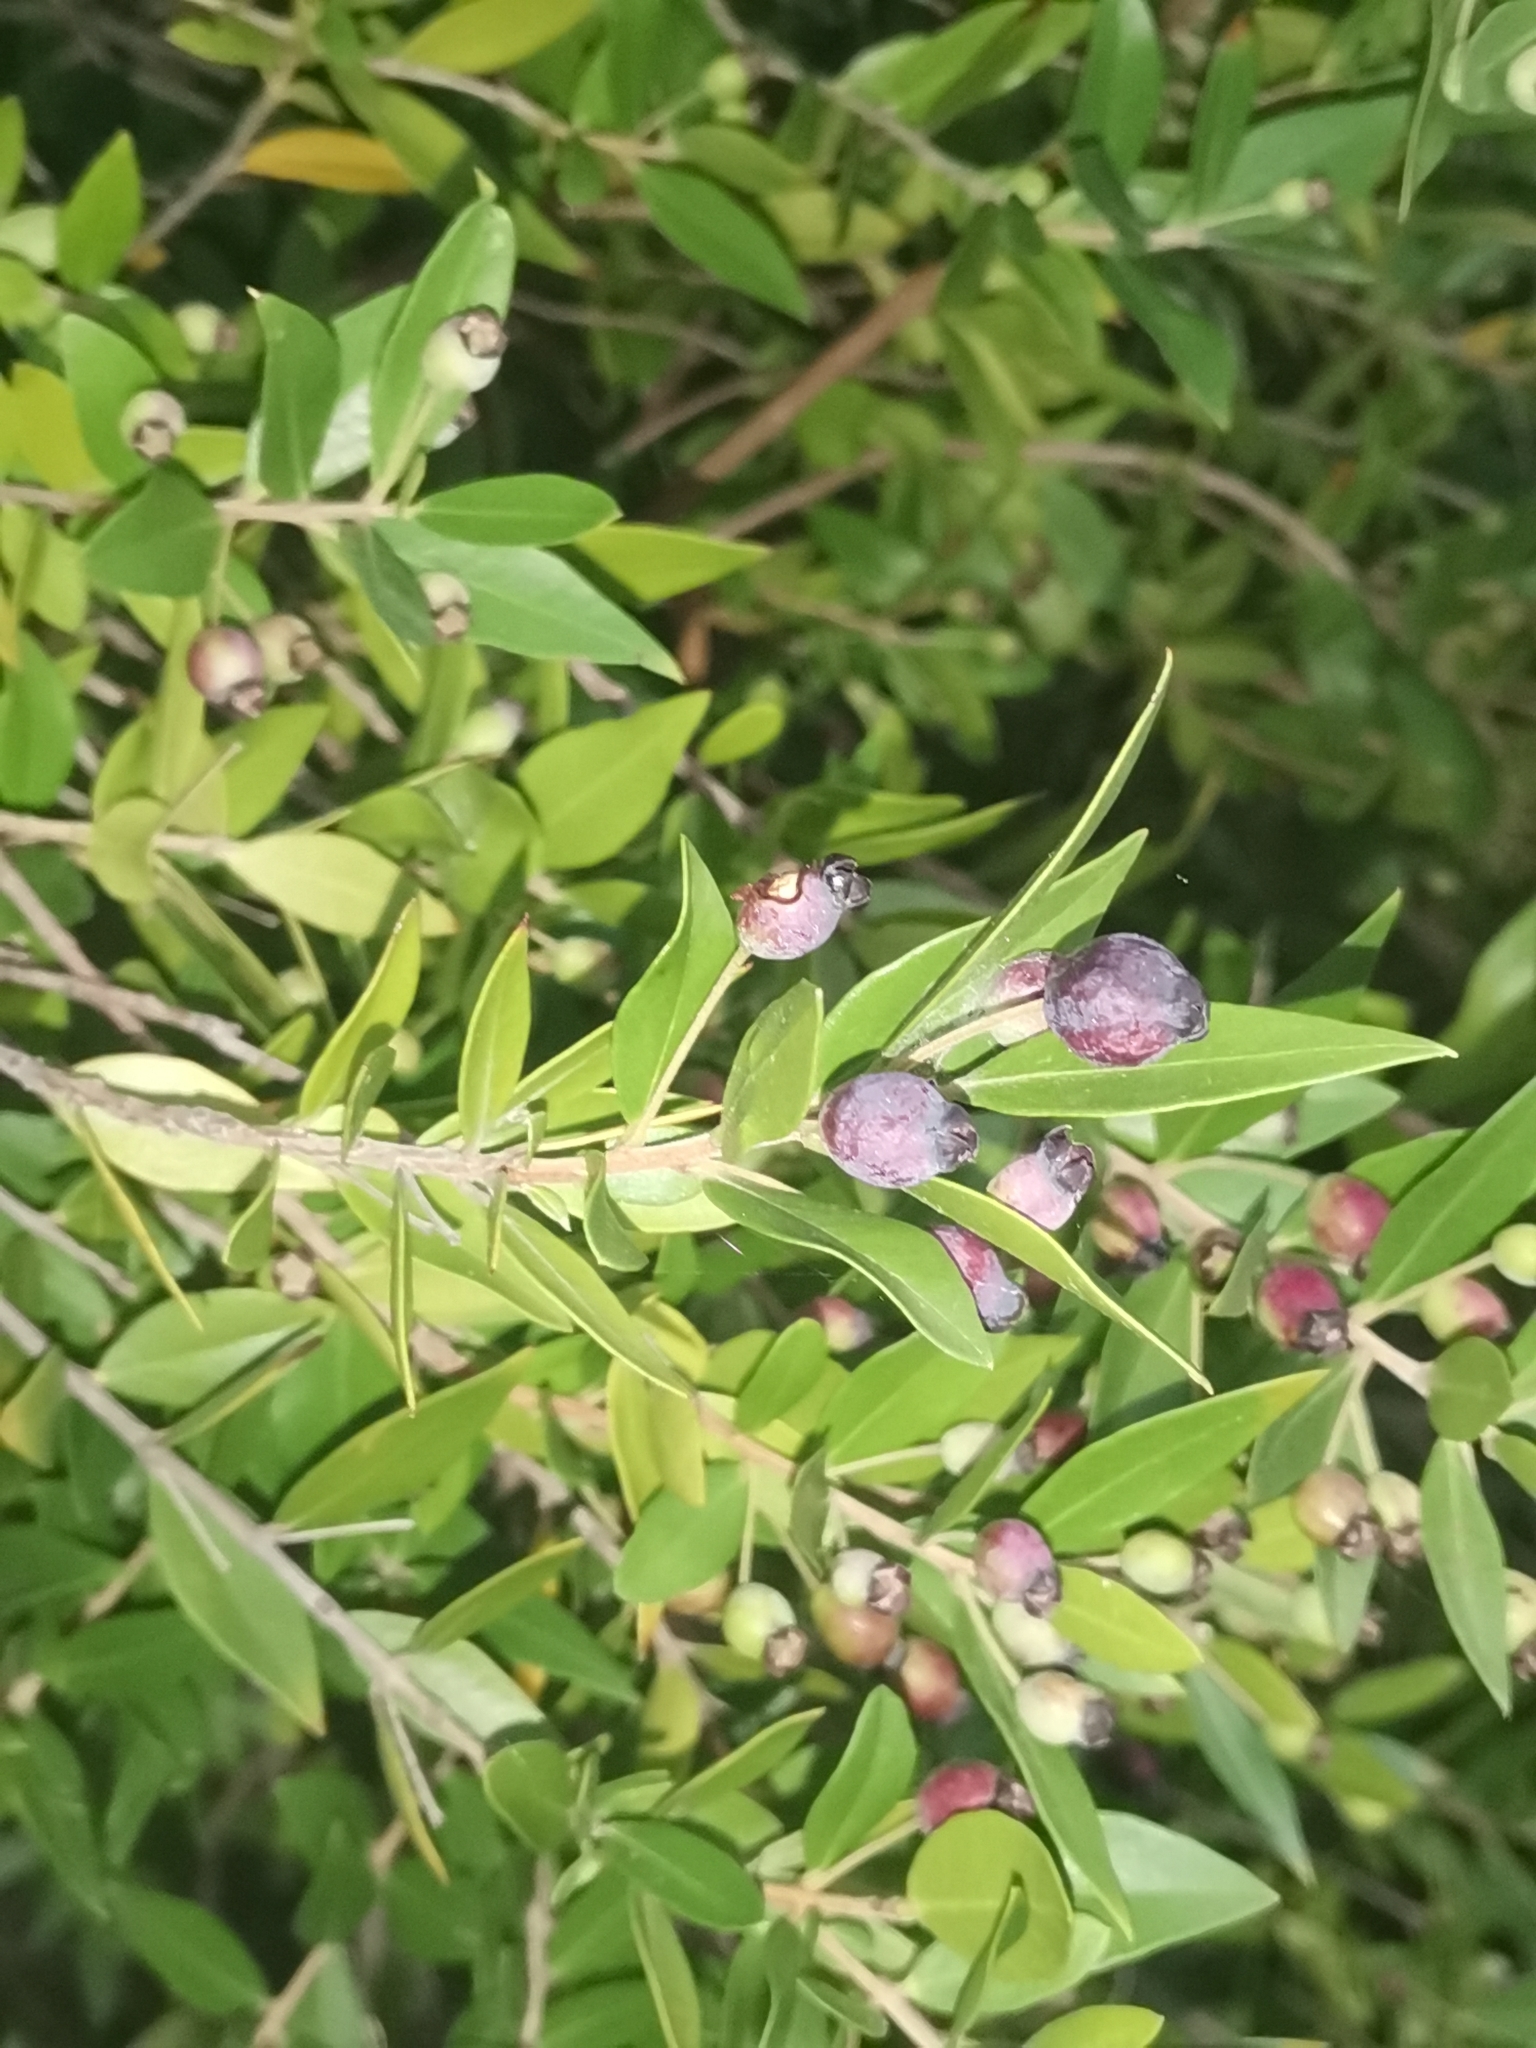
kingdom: Plantae
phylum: Tracheophyta
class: Magnoliopsida
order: Myrtales
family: Myrtaceae
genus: Myrtus
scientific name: Myrtus communis
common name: Myrtle
